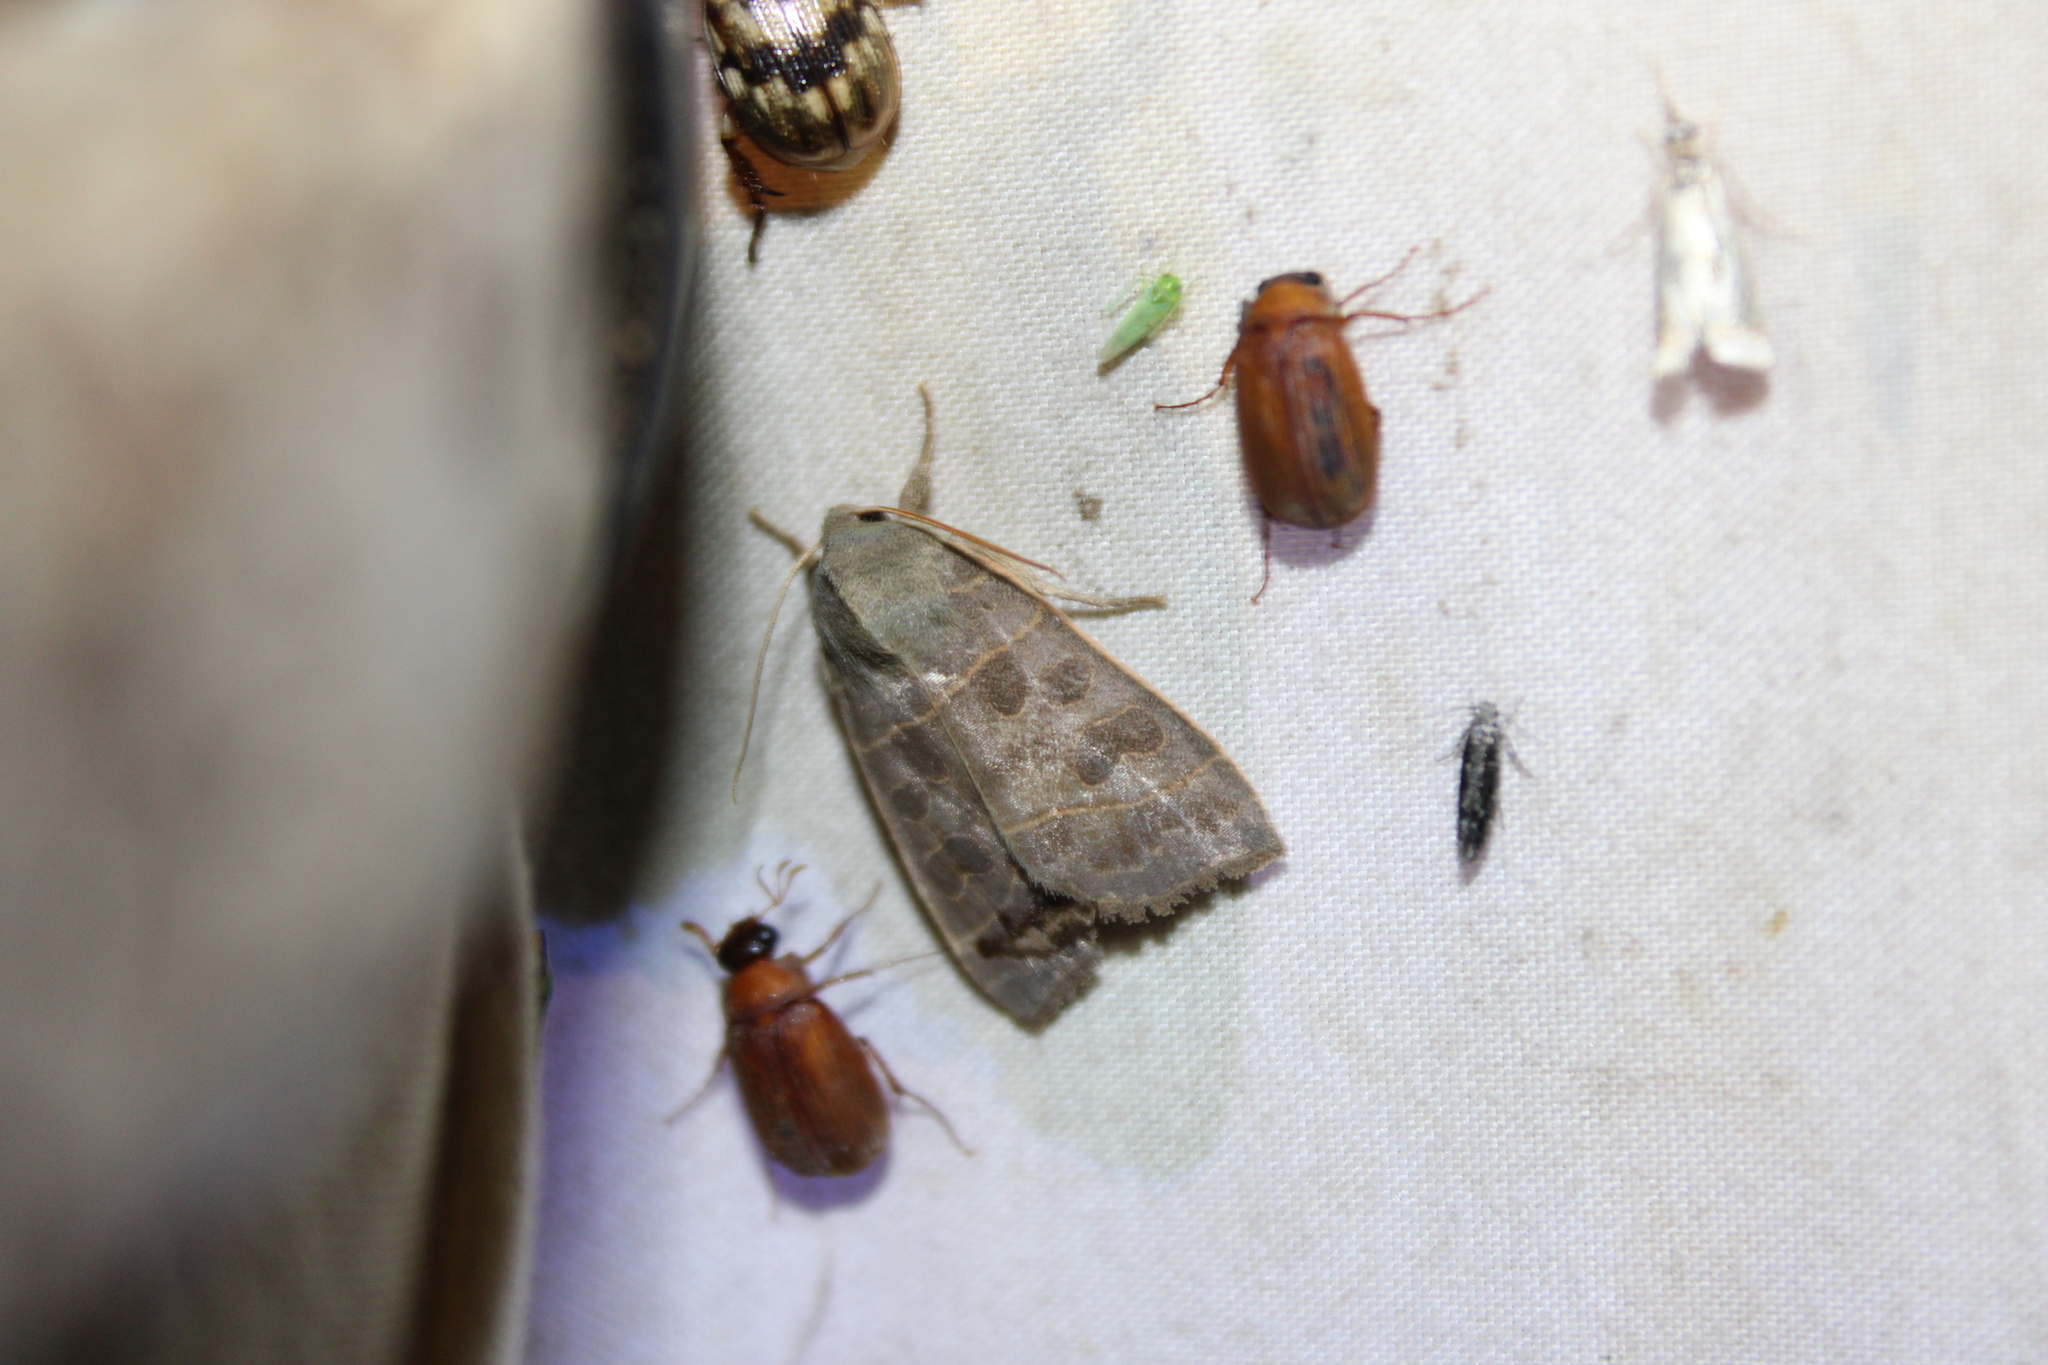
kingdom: Animalia
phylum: Arthropoda
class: Insecta
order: Lepidoptera
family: Noctuidae
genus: Ipimorpha
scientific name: Ipimorpha pleonectusa
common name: Even-lined sallow
